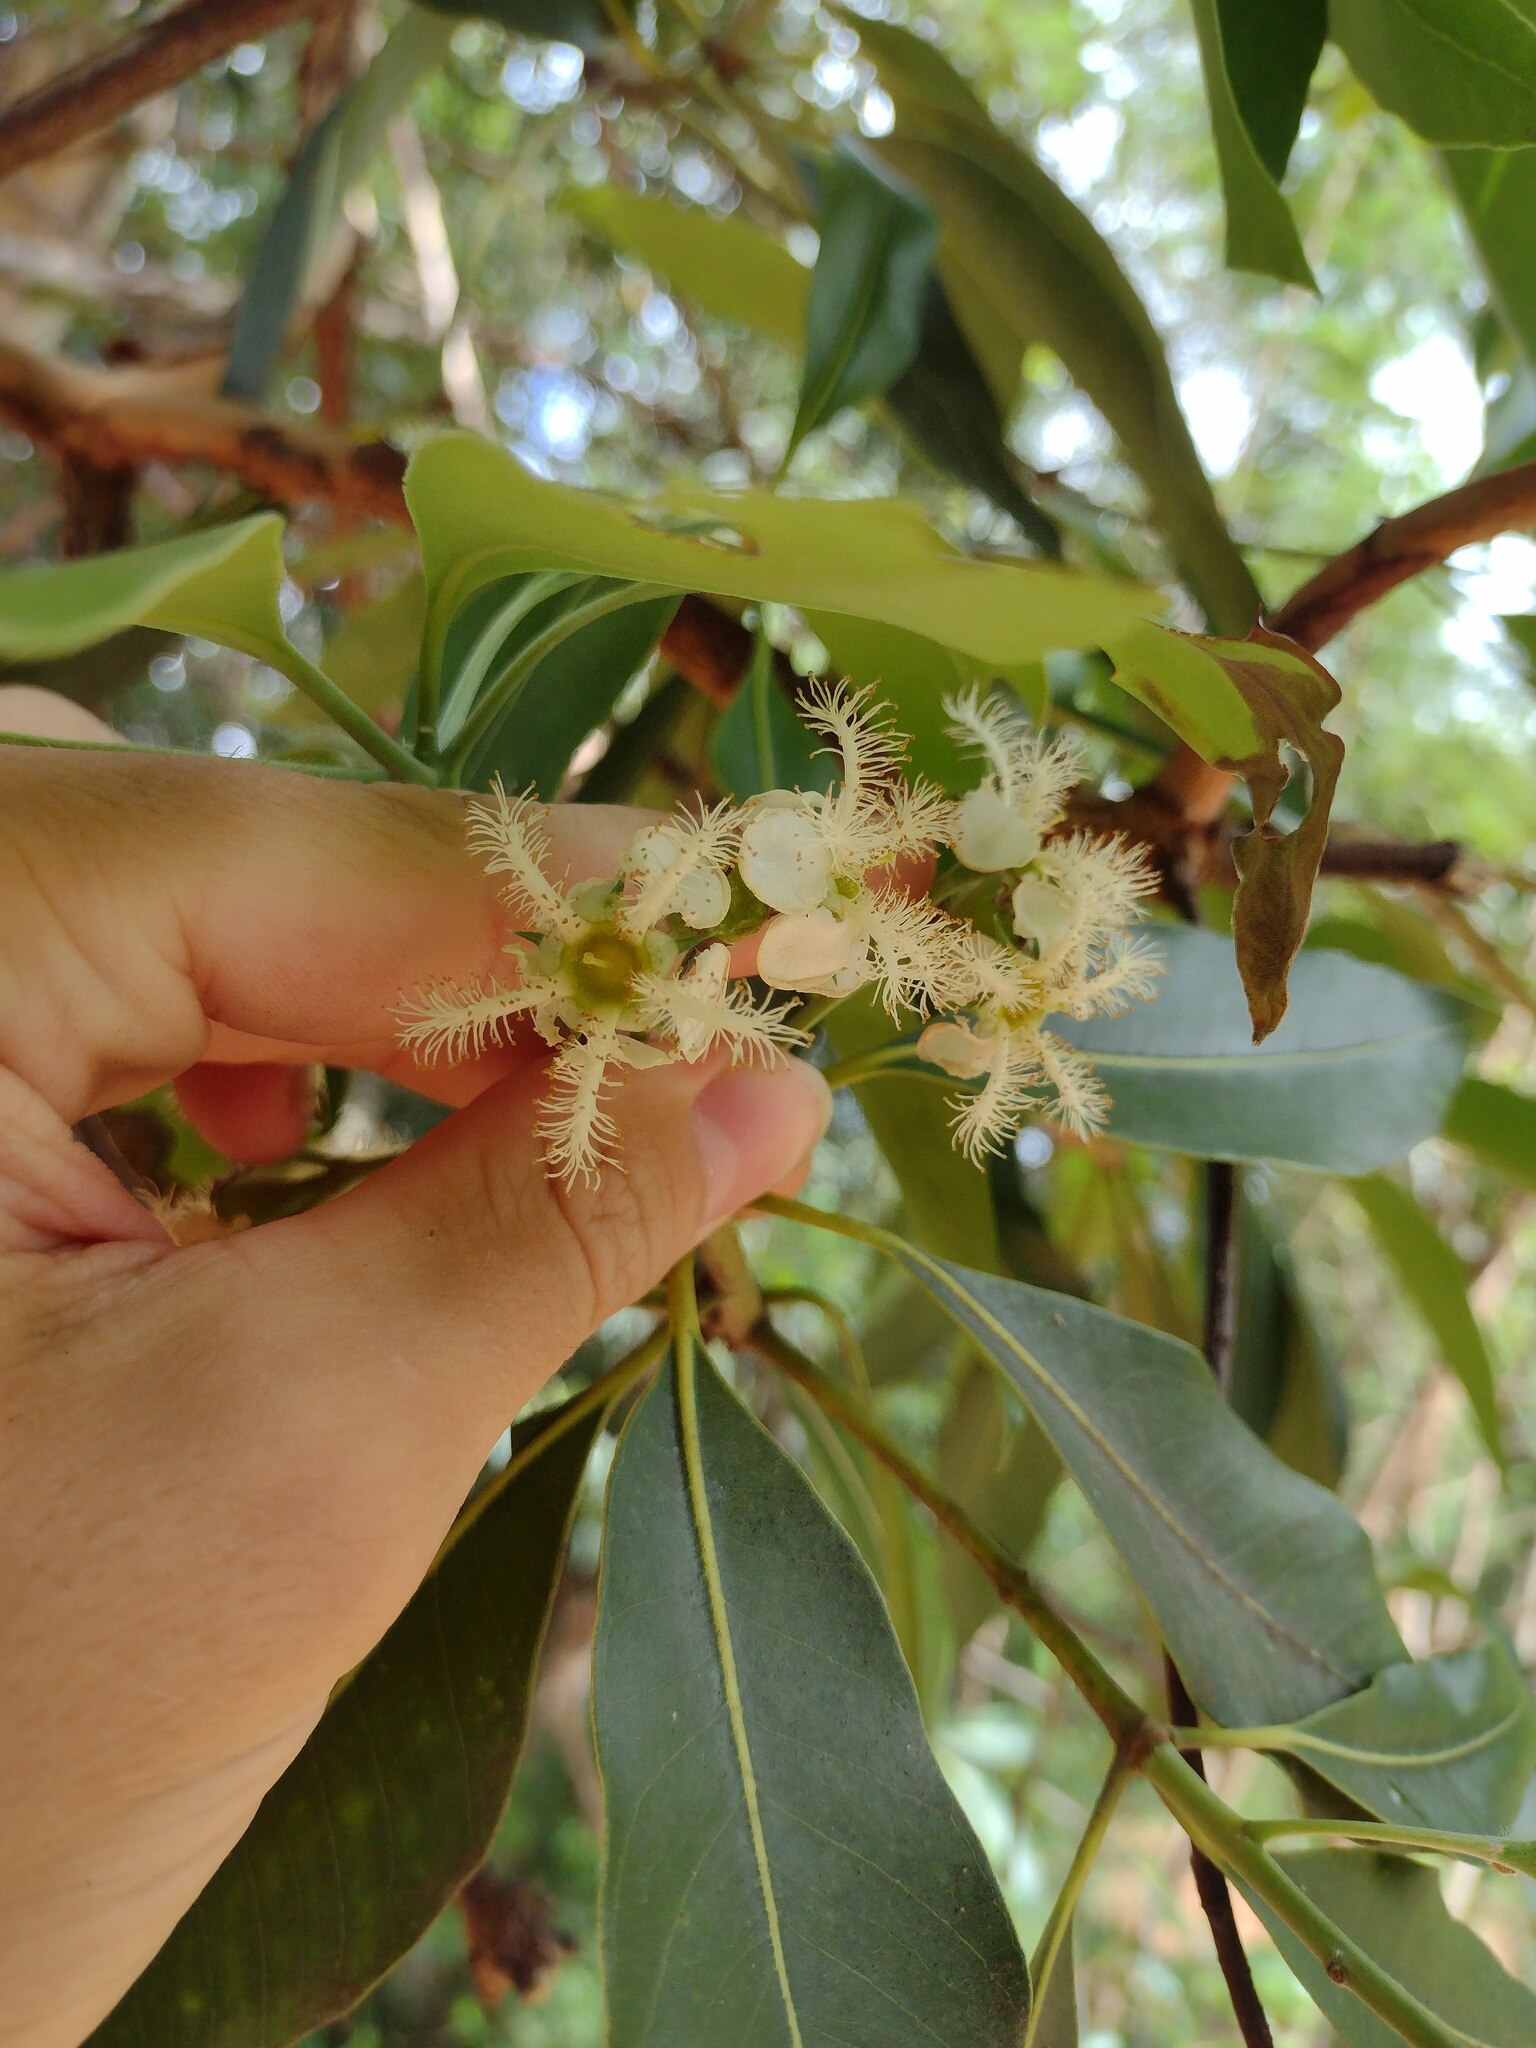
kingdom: Plantae
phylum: Tracheophyta
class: Magnoliopsida
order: Myrtales
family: Myrtaceae
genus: Lophostemon
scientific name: Lophostemon confertus
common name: Brisbane box
